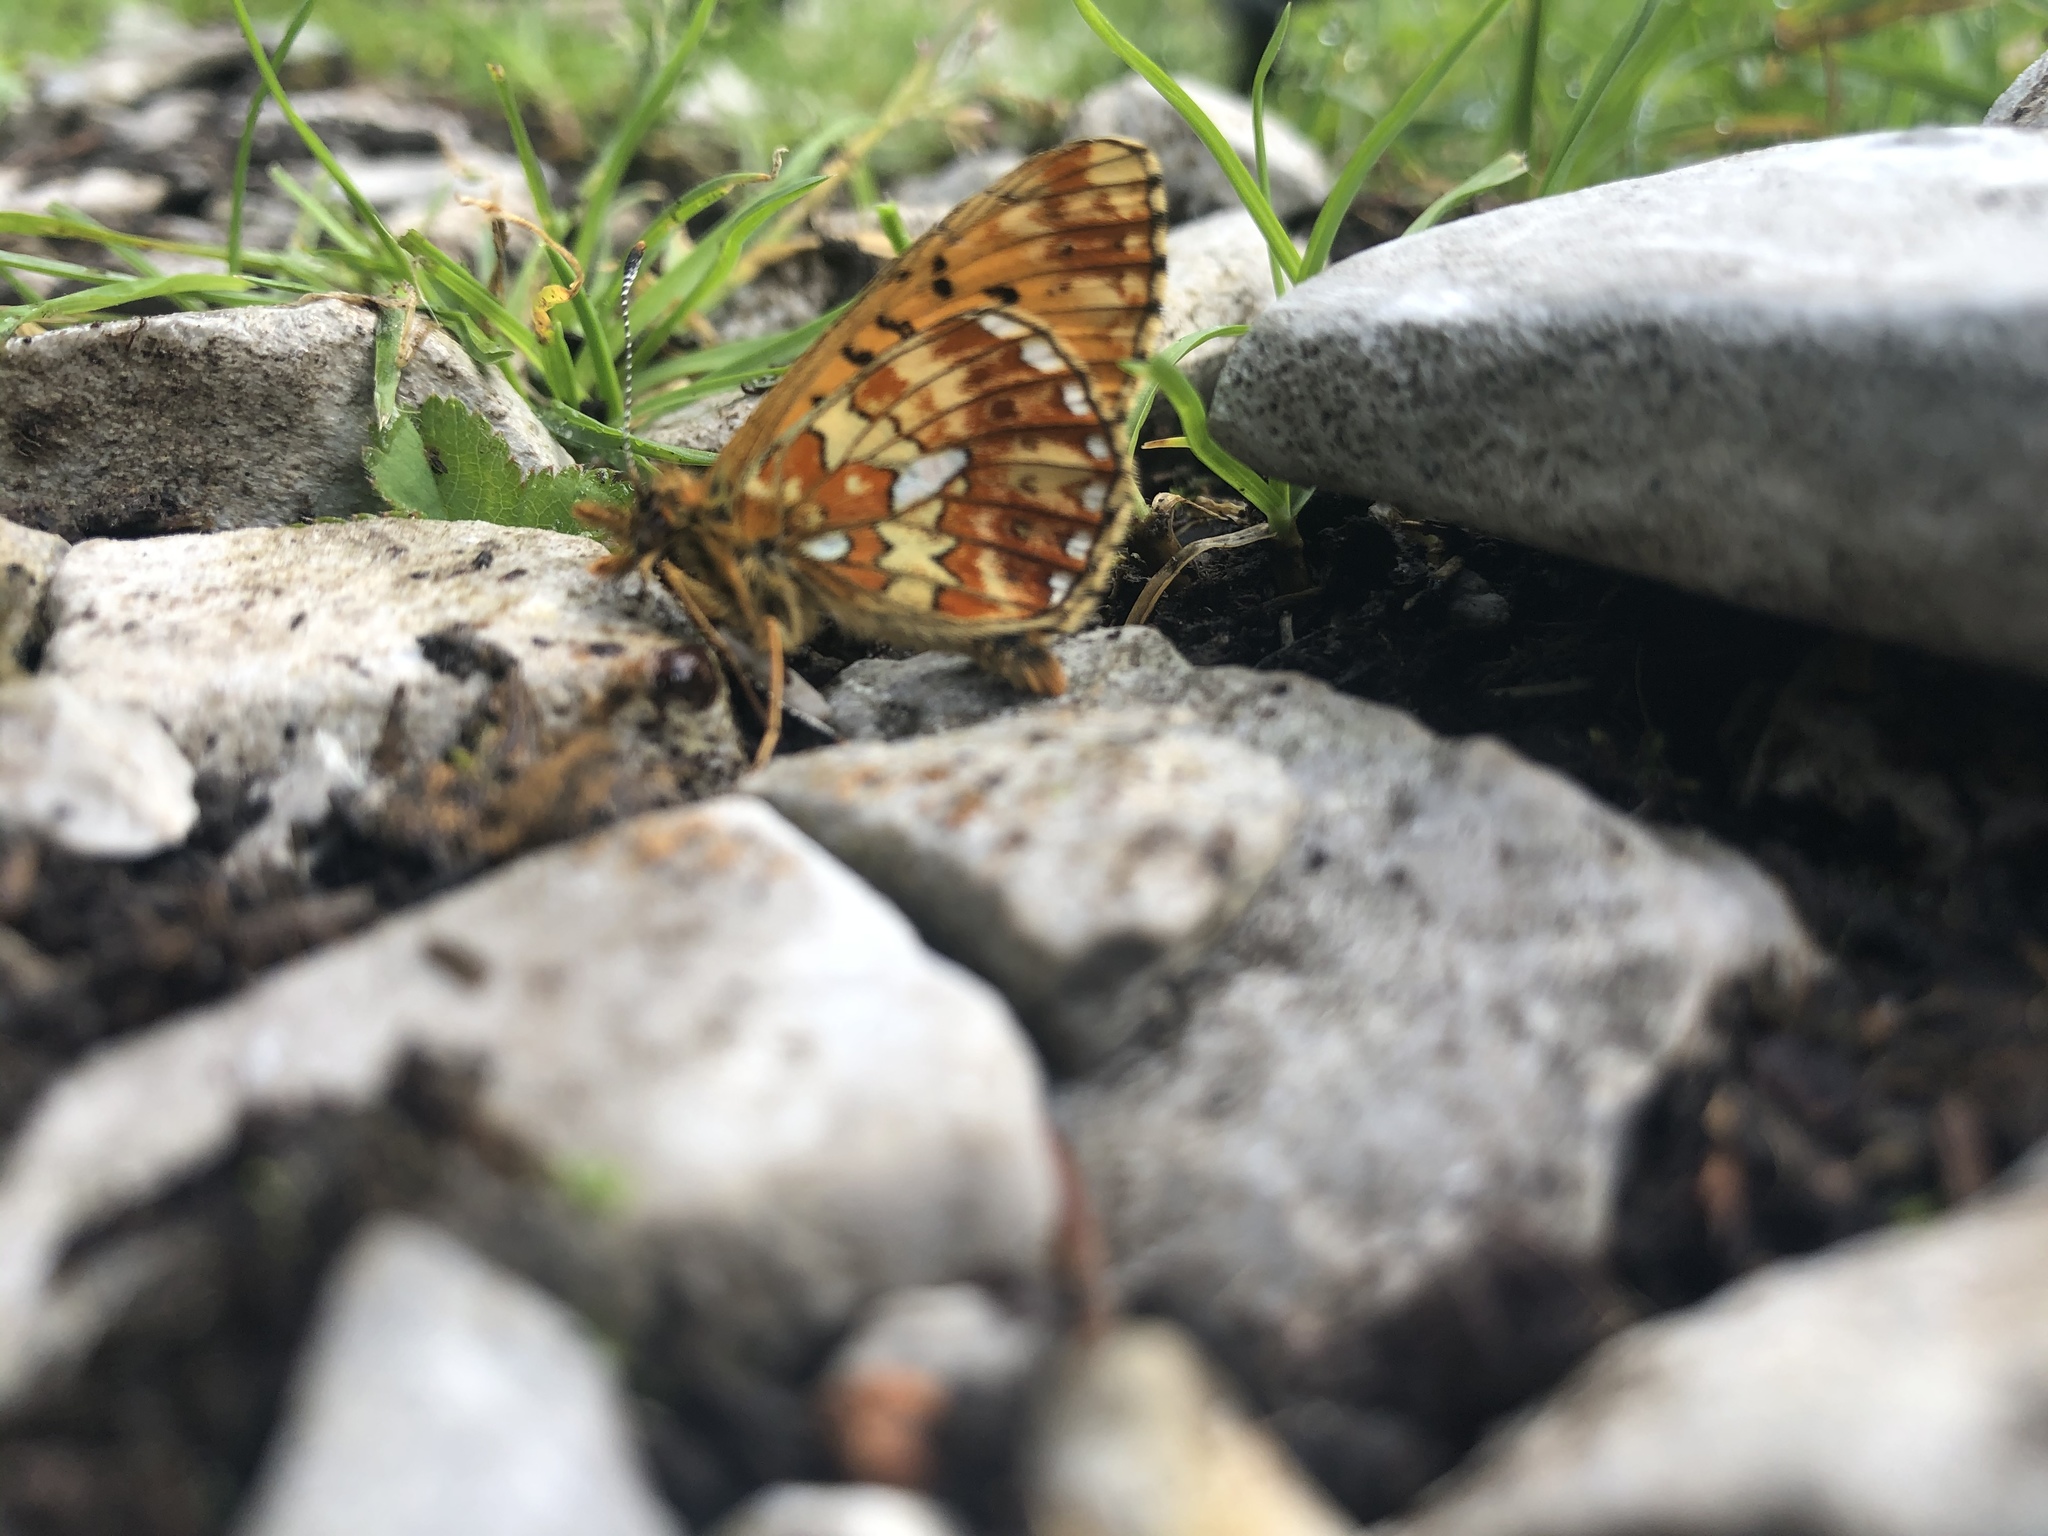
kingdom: Animalia
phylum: Arthropoda
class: Insecta
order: Lepidoptera
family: Nymphalidae
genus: Clossiana
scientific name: Clossiana euphrosyne
